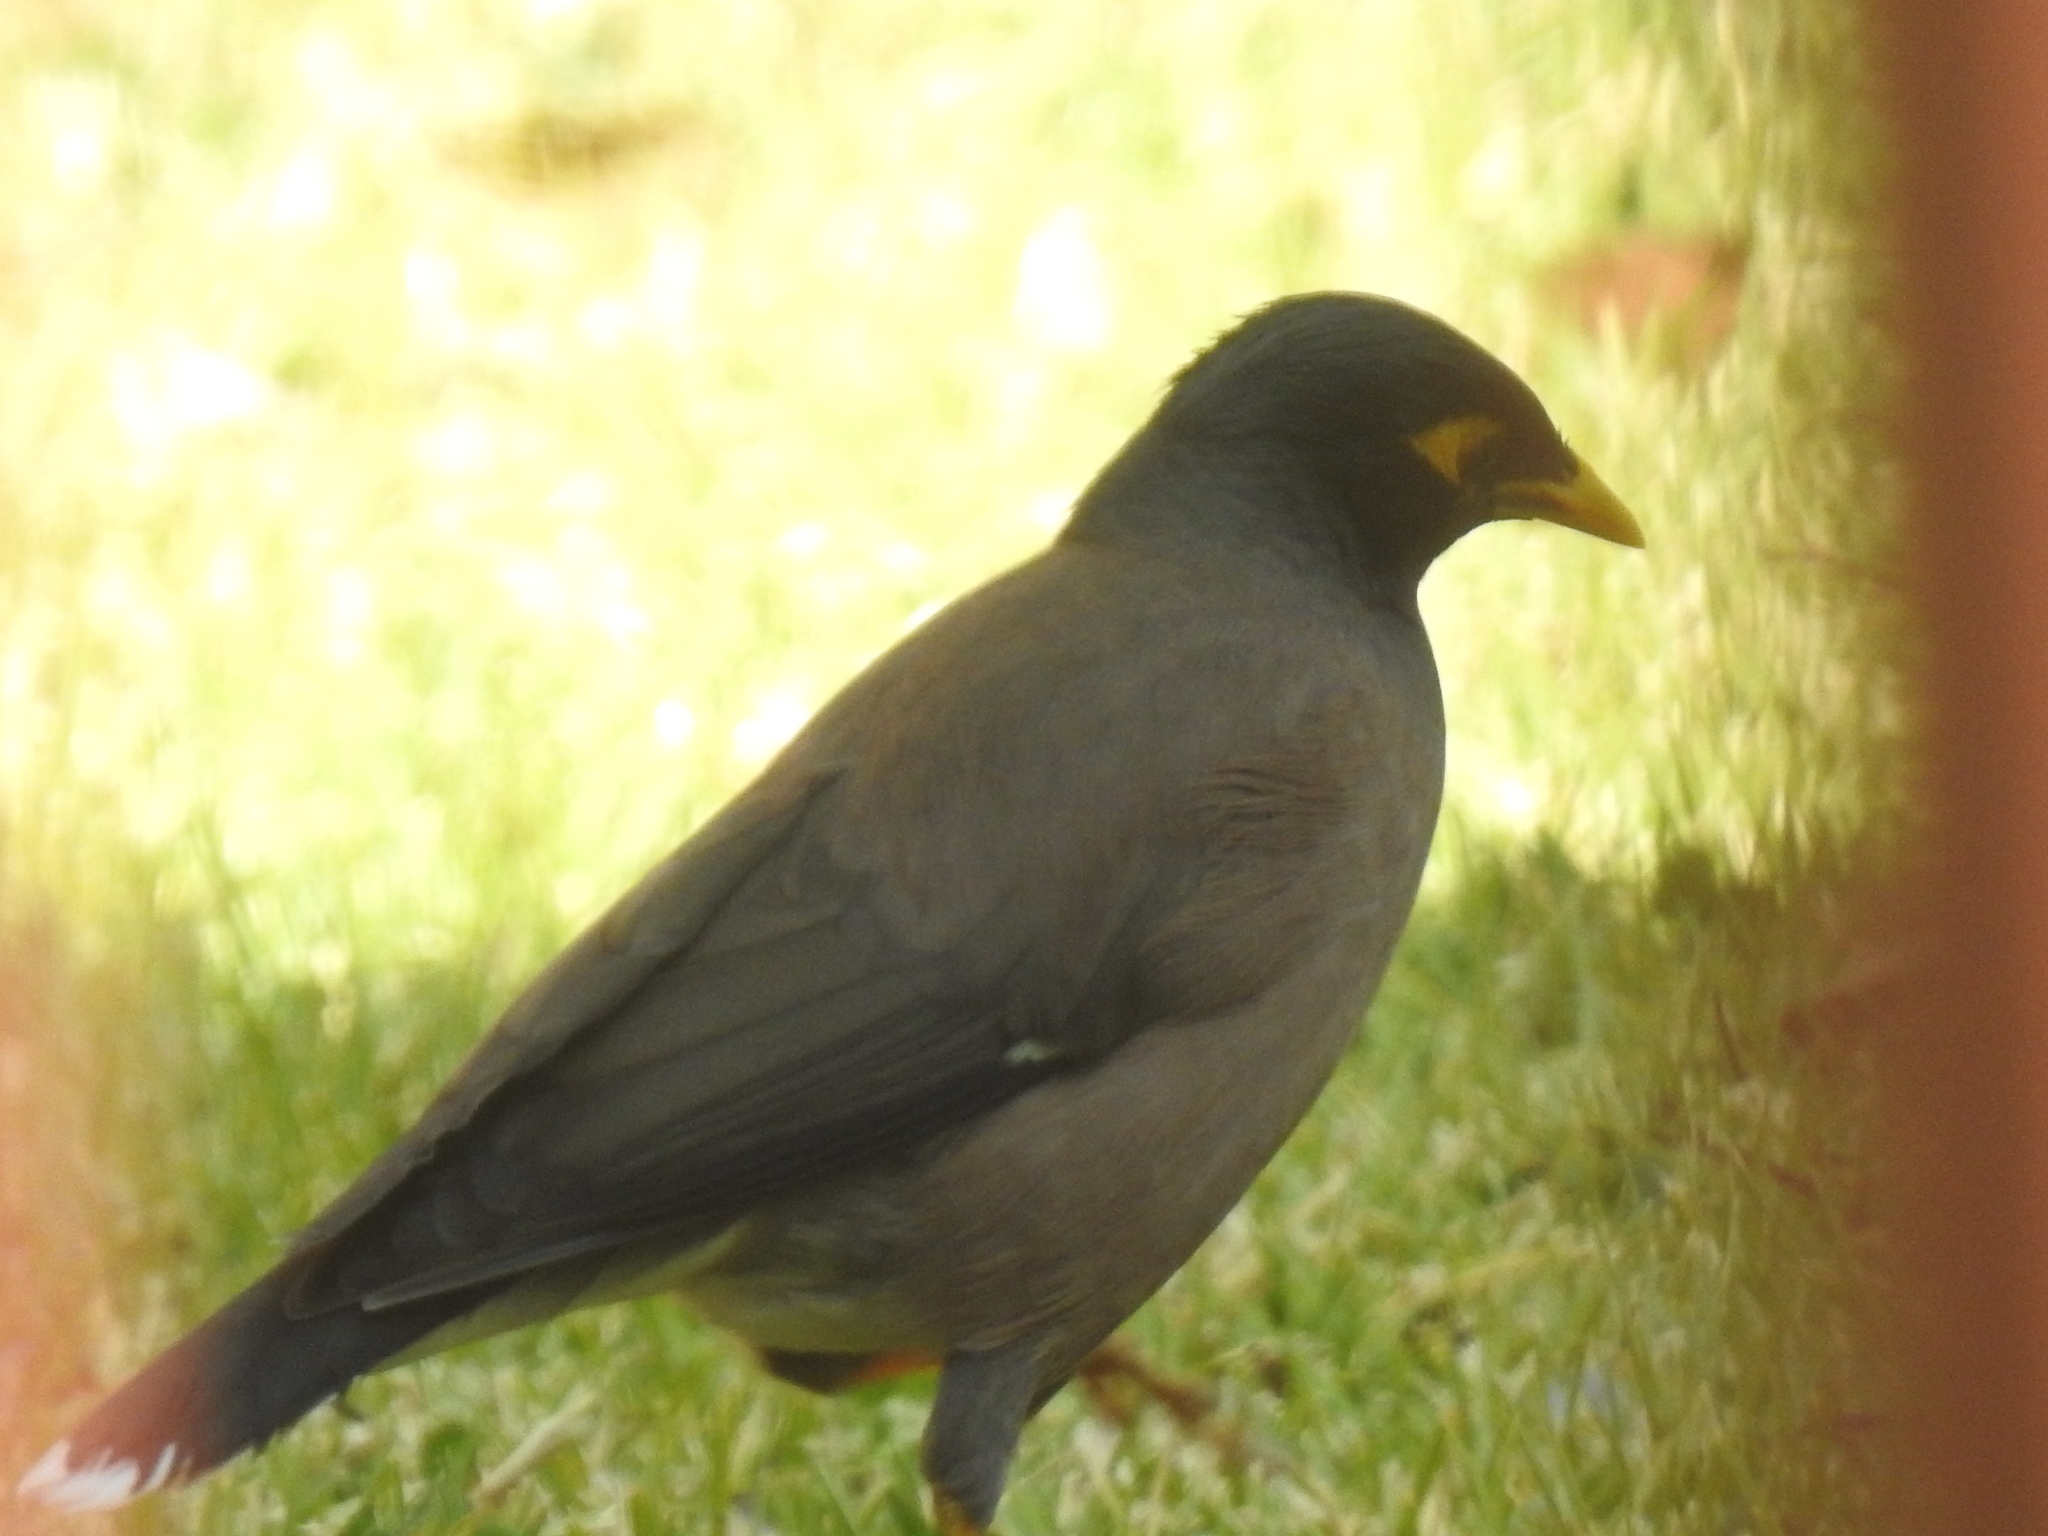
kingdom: Animalia
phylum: Chordata
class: Aves
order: Passeriformes
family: Sturnidae
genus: Acridotheres
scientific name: Acridotheres tristis
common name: Common myna
